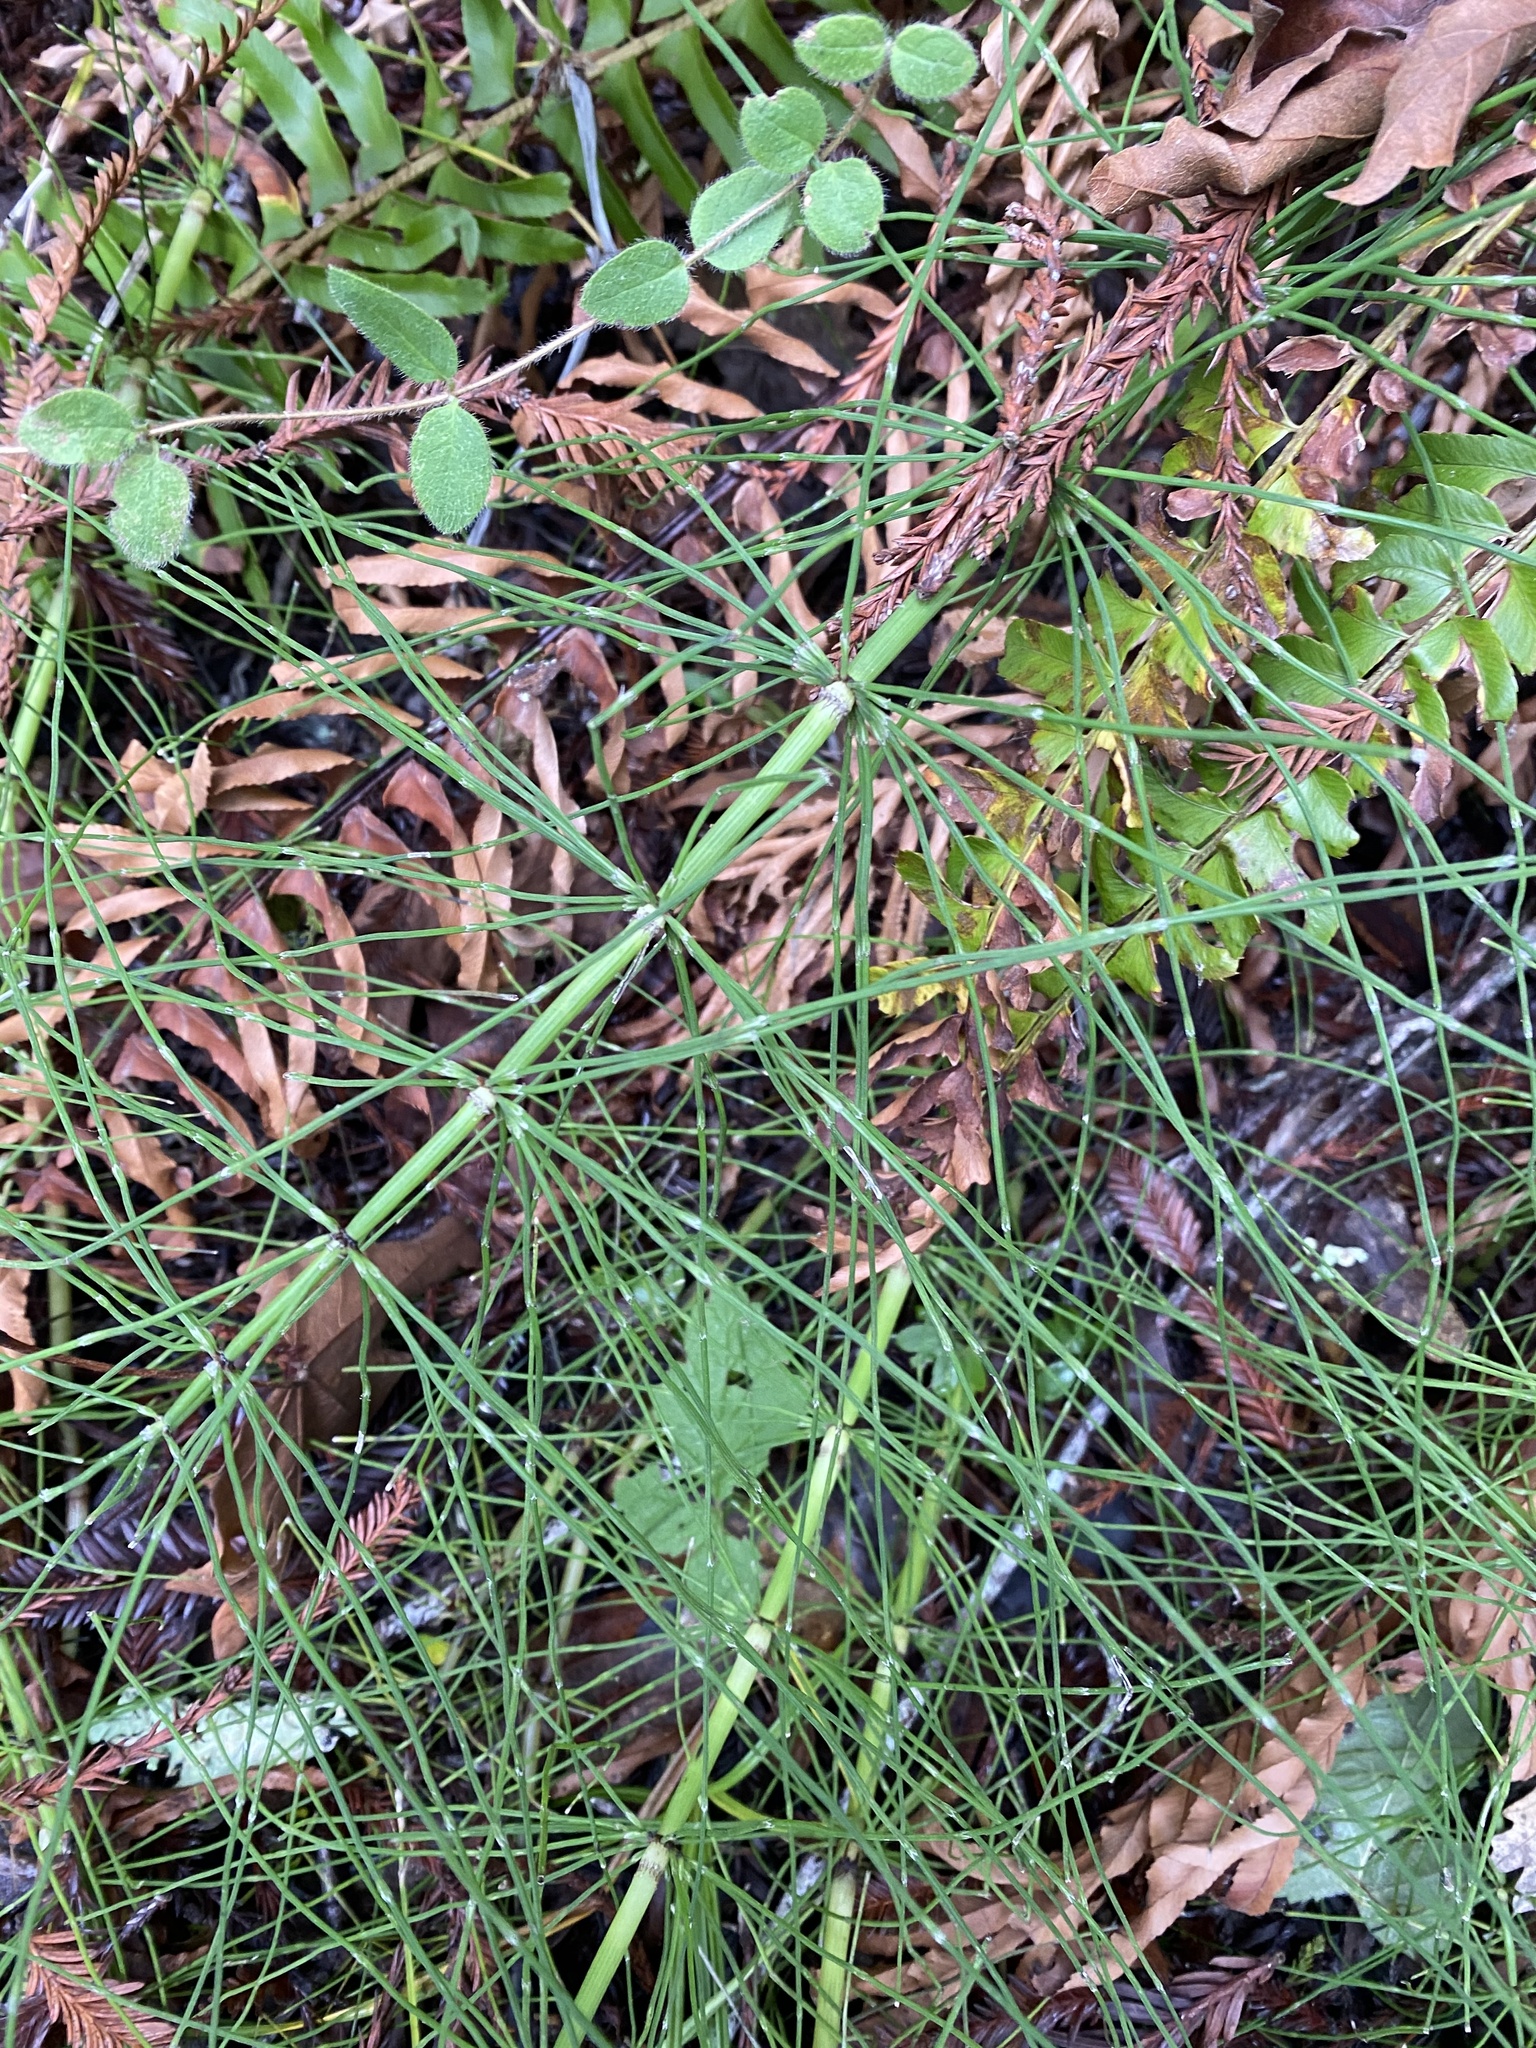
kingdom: Plantae
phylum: Tracheophyta
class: Polypodiopsida
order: Equisetales
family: Equisetaceae
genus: Equisetum
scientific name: Equisetum braunii
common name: Braun's horsetail
